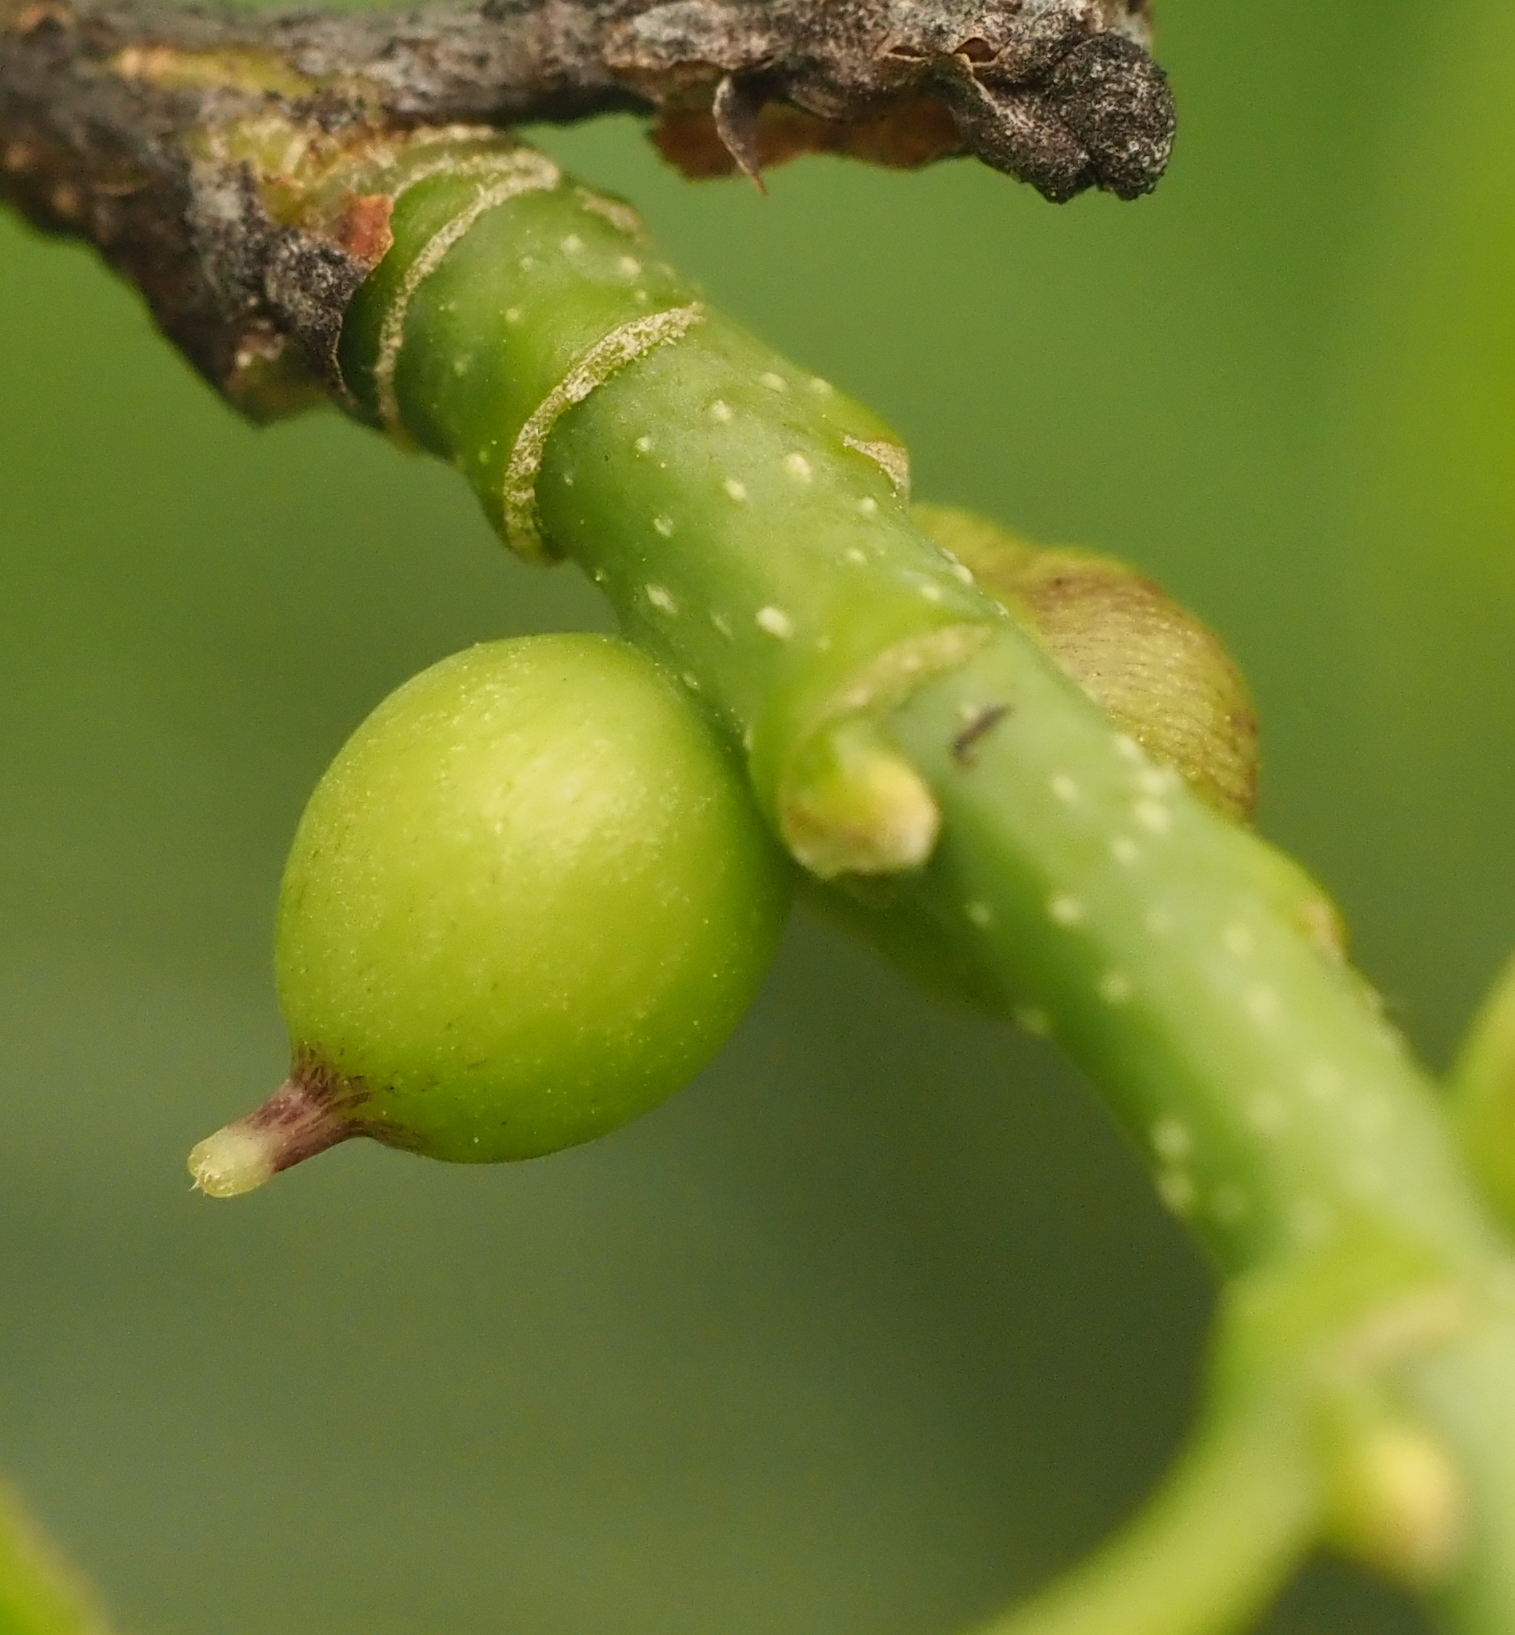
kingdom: Animalia
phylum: Arthropoda
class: Insecta
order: Diptera
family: Cecidomyiidae
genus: Celticecis
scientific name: Celticecis connata
